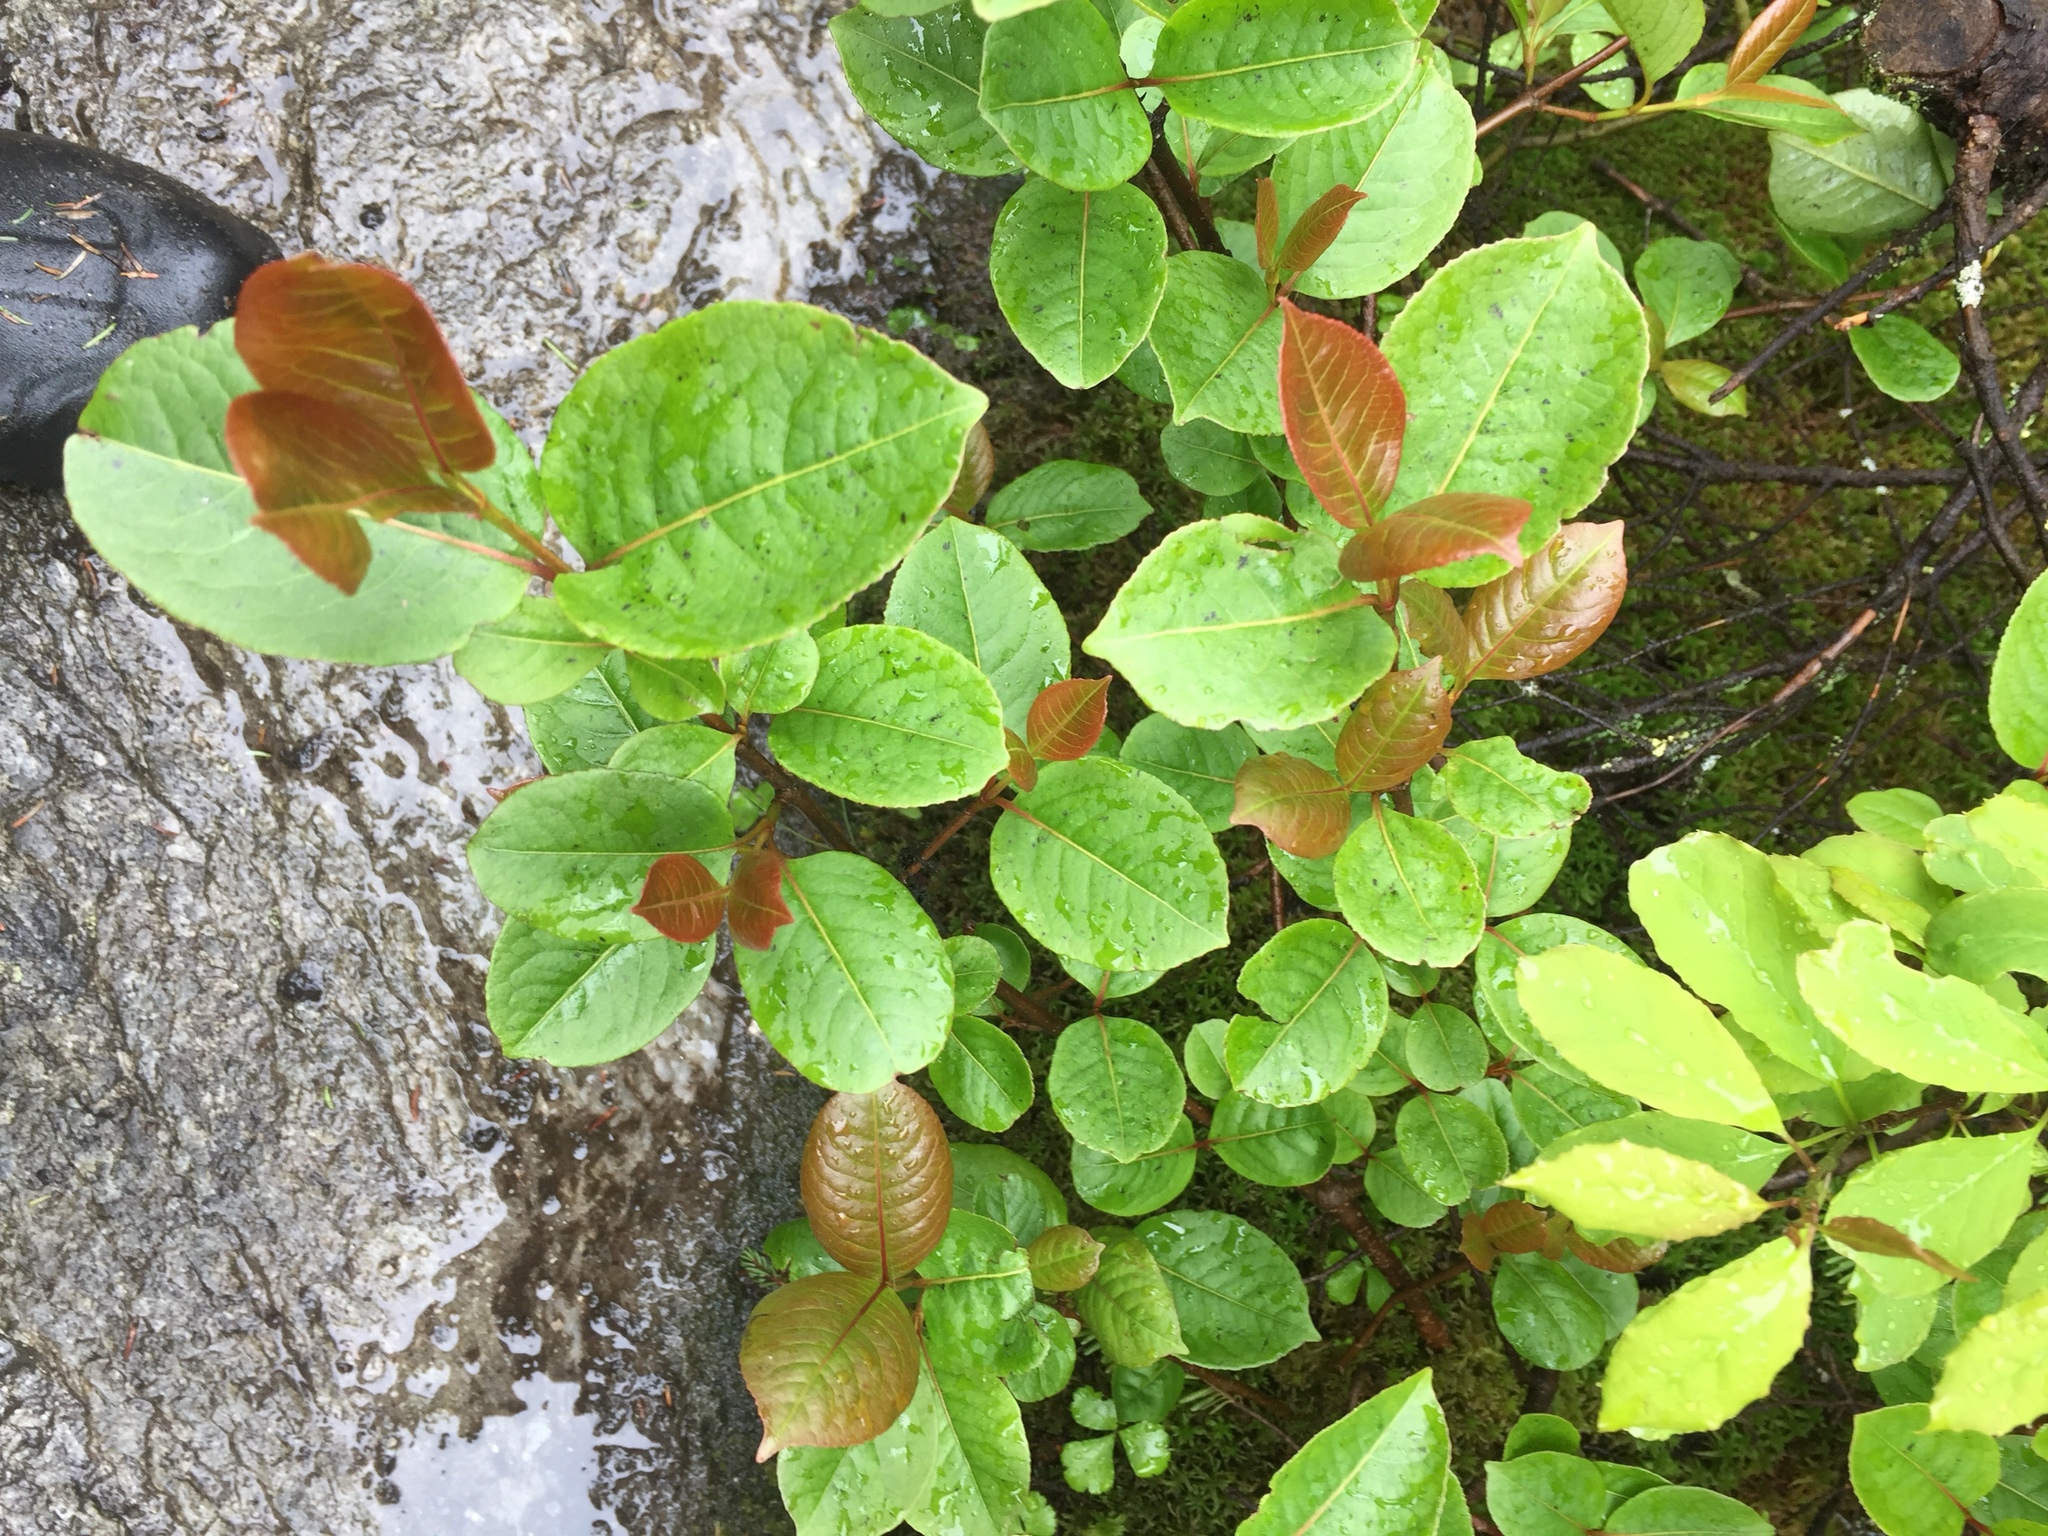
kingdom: Plantae
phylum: Tracheophyta
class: Magnoliopsida
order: Dipsacales
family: Viburnaceae
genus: Viburnum
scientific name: Viburnum cassinoides
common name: Swamp haw
